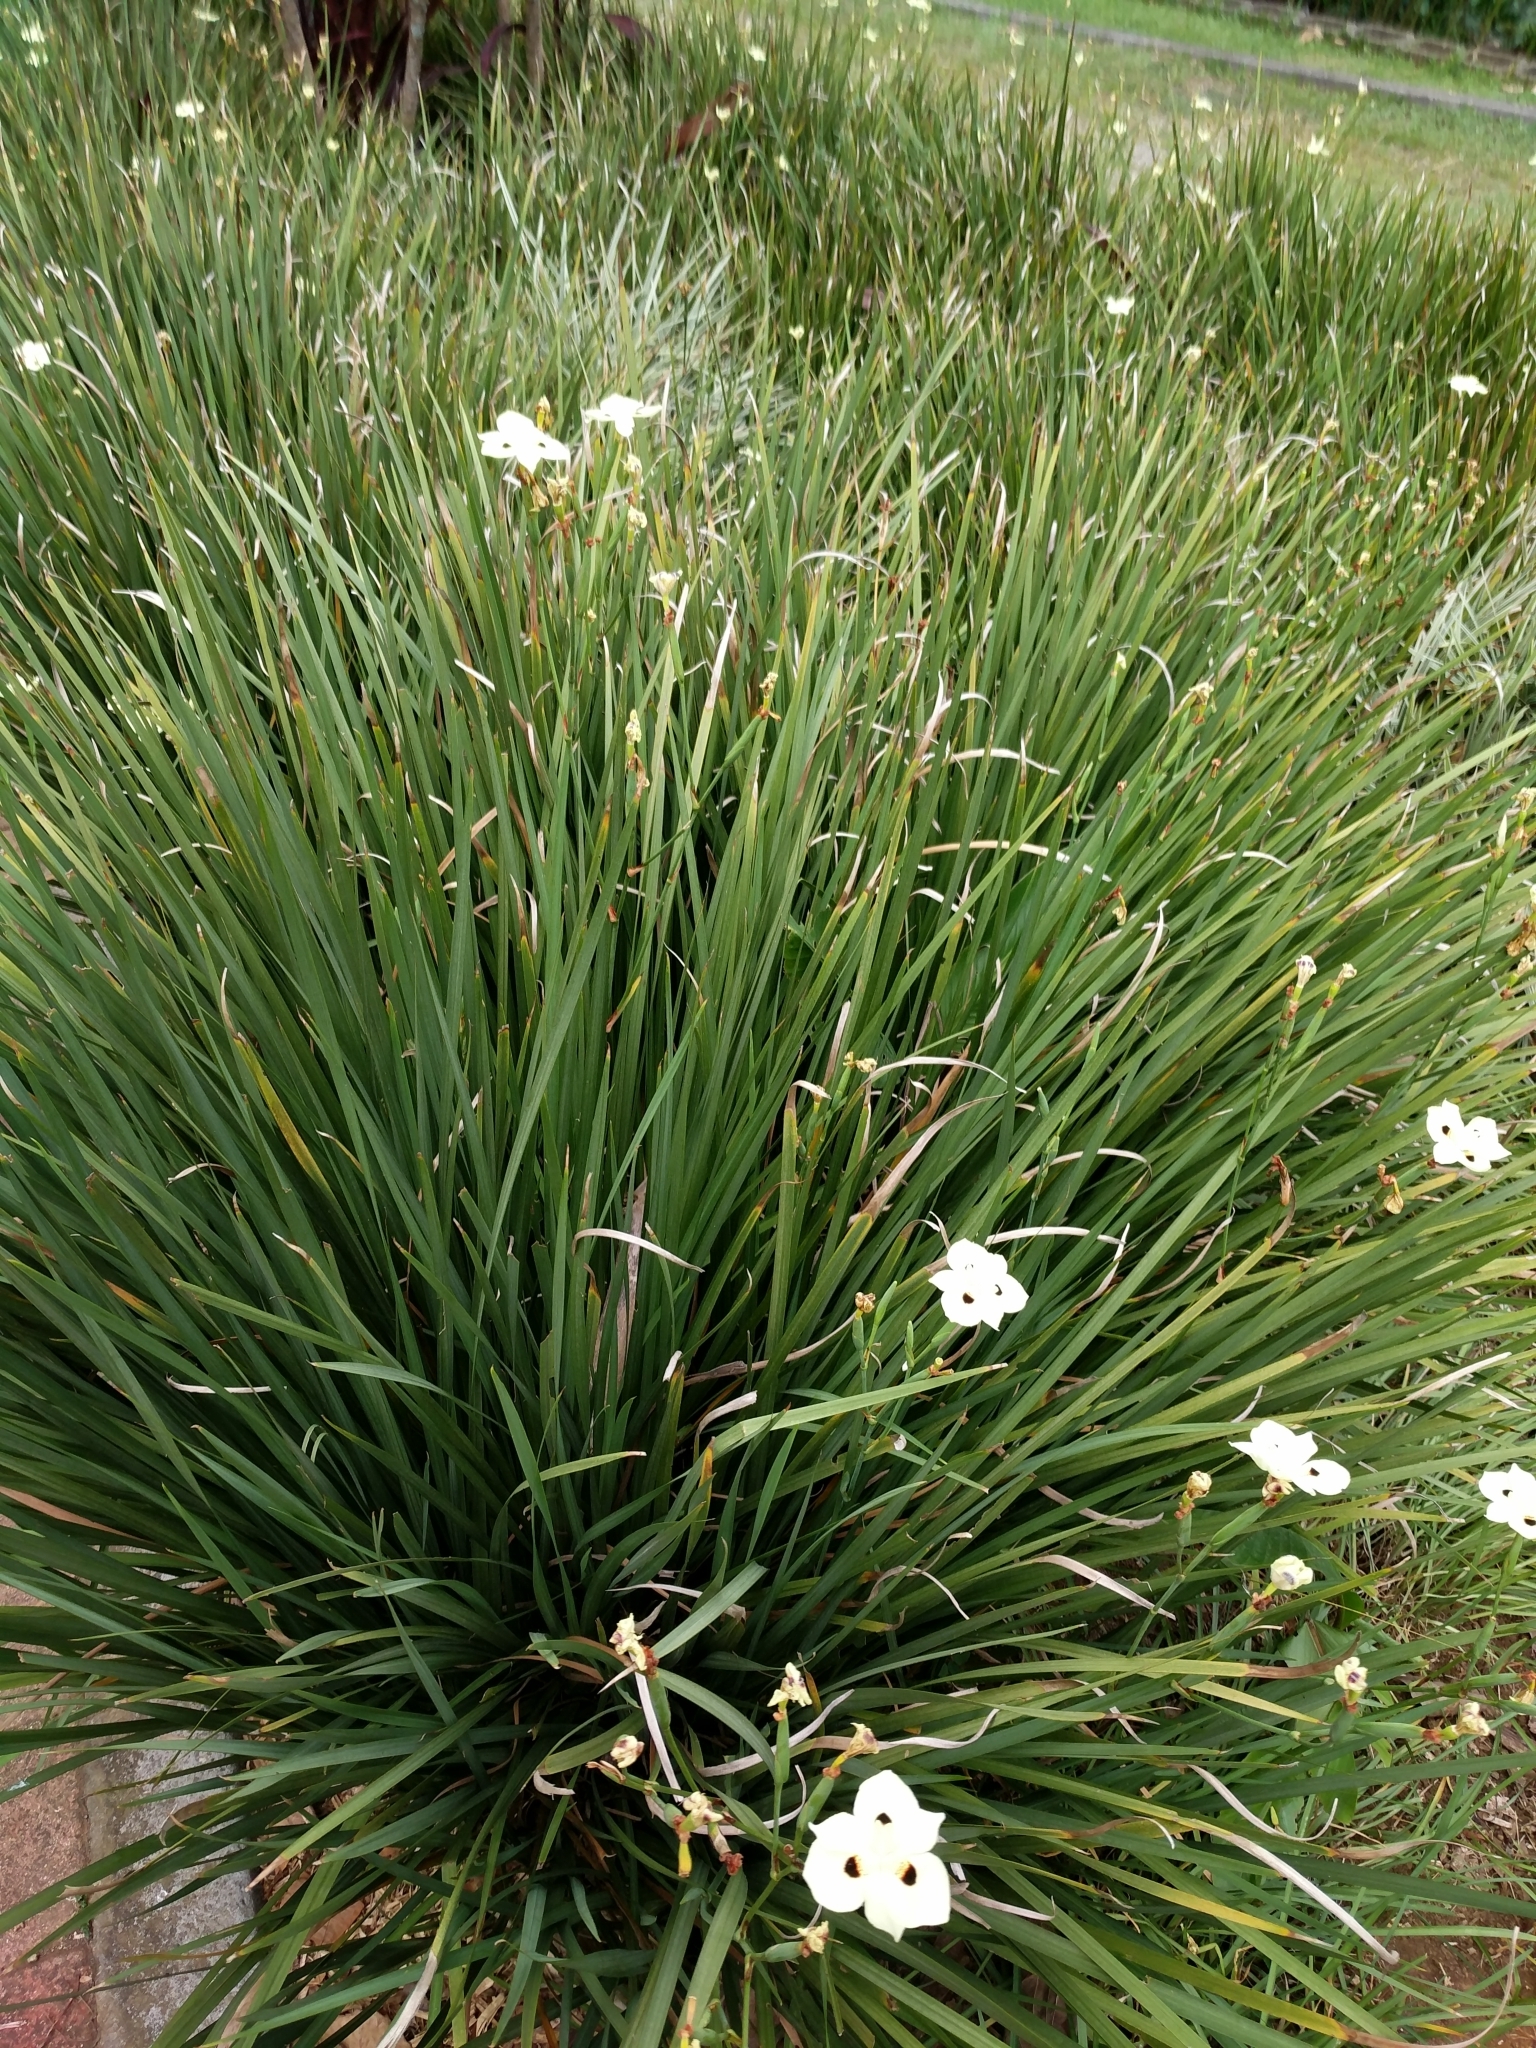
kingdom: Plantae
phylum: Tracheophyta
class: Liliopsida
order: Asparagales
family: Iridaceae
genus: Dietes
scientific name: Dietes bicolor
